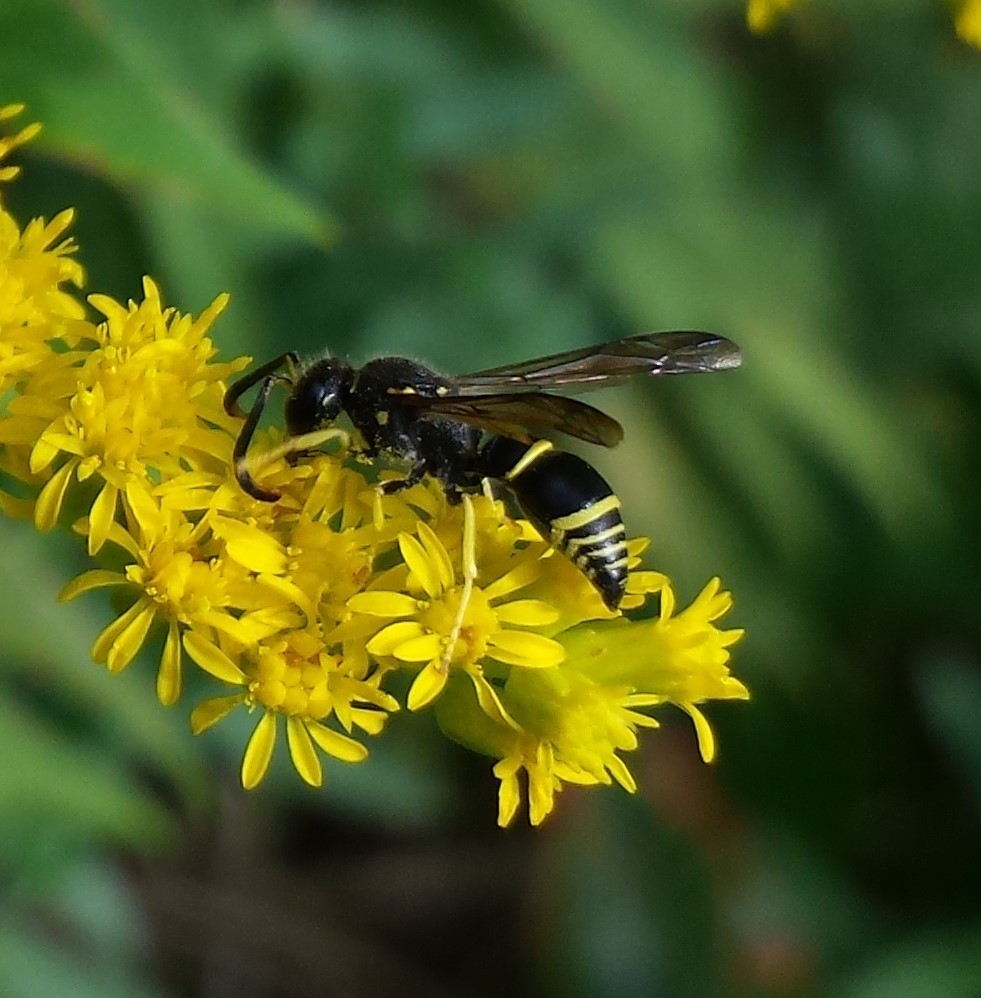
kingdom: Animalia
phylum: Arthropoda
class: Insecta
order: Hymenoptera
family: Vespidae
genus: Ancistrocerus
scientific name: Ancistrocerus
